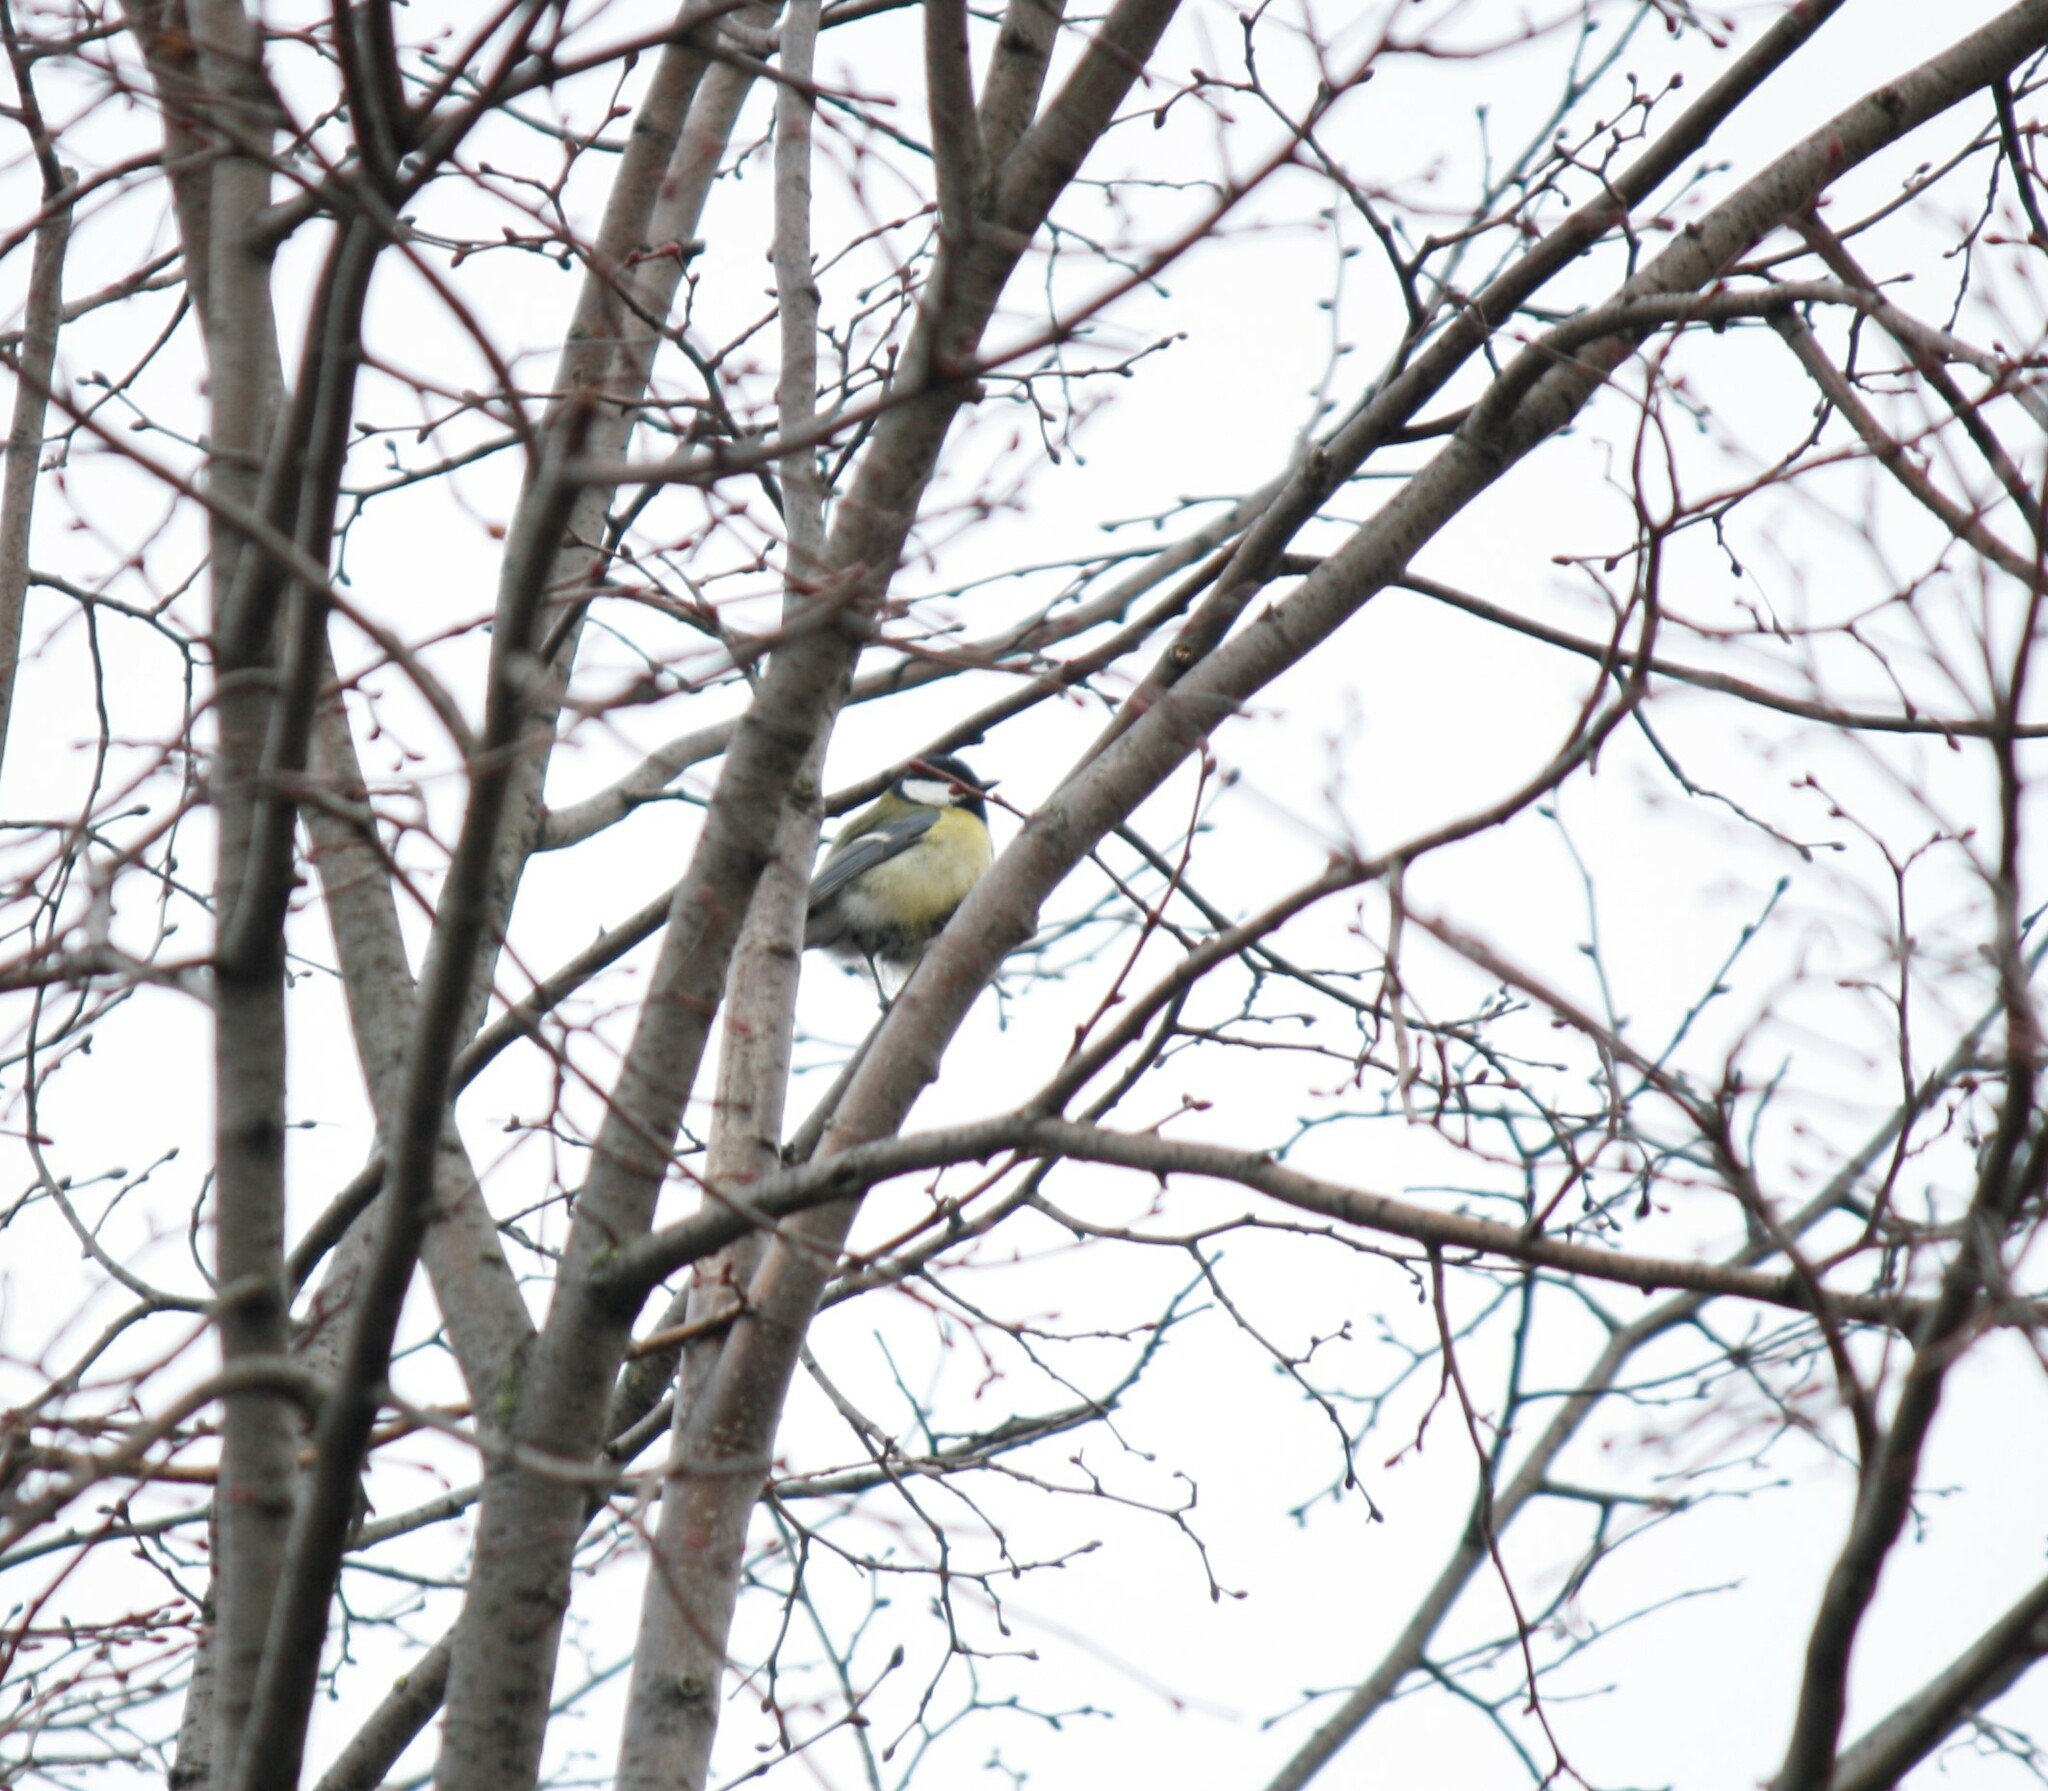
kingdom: Animalia
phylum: Chordata
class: Aves
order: Passeriformes
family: Paridae
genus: Parus
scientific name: Parus major
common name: Great tit
